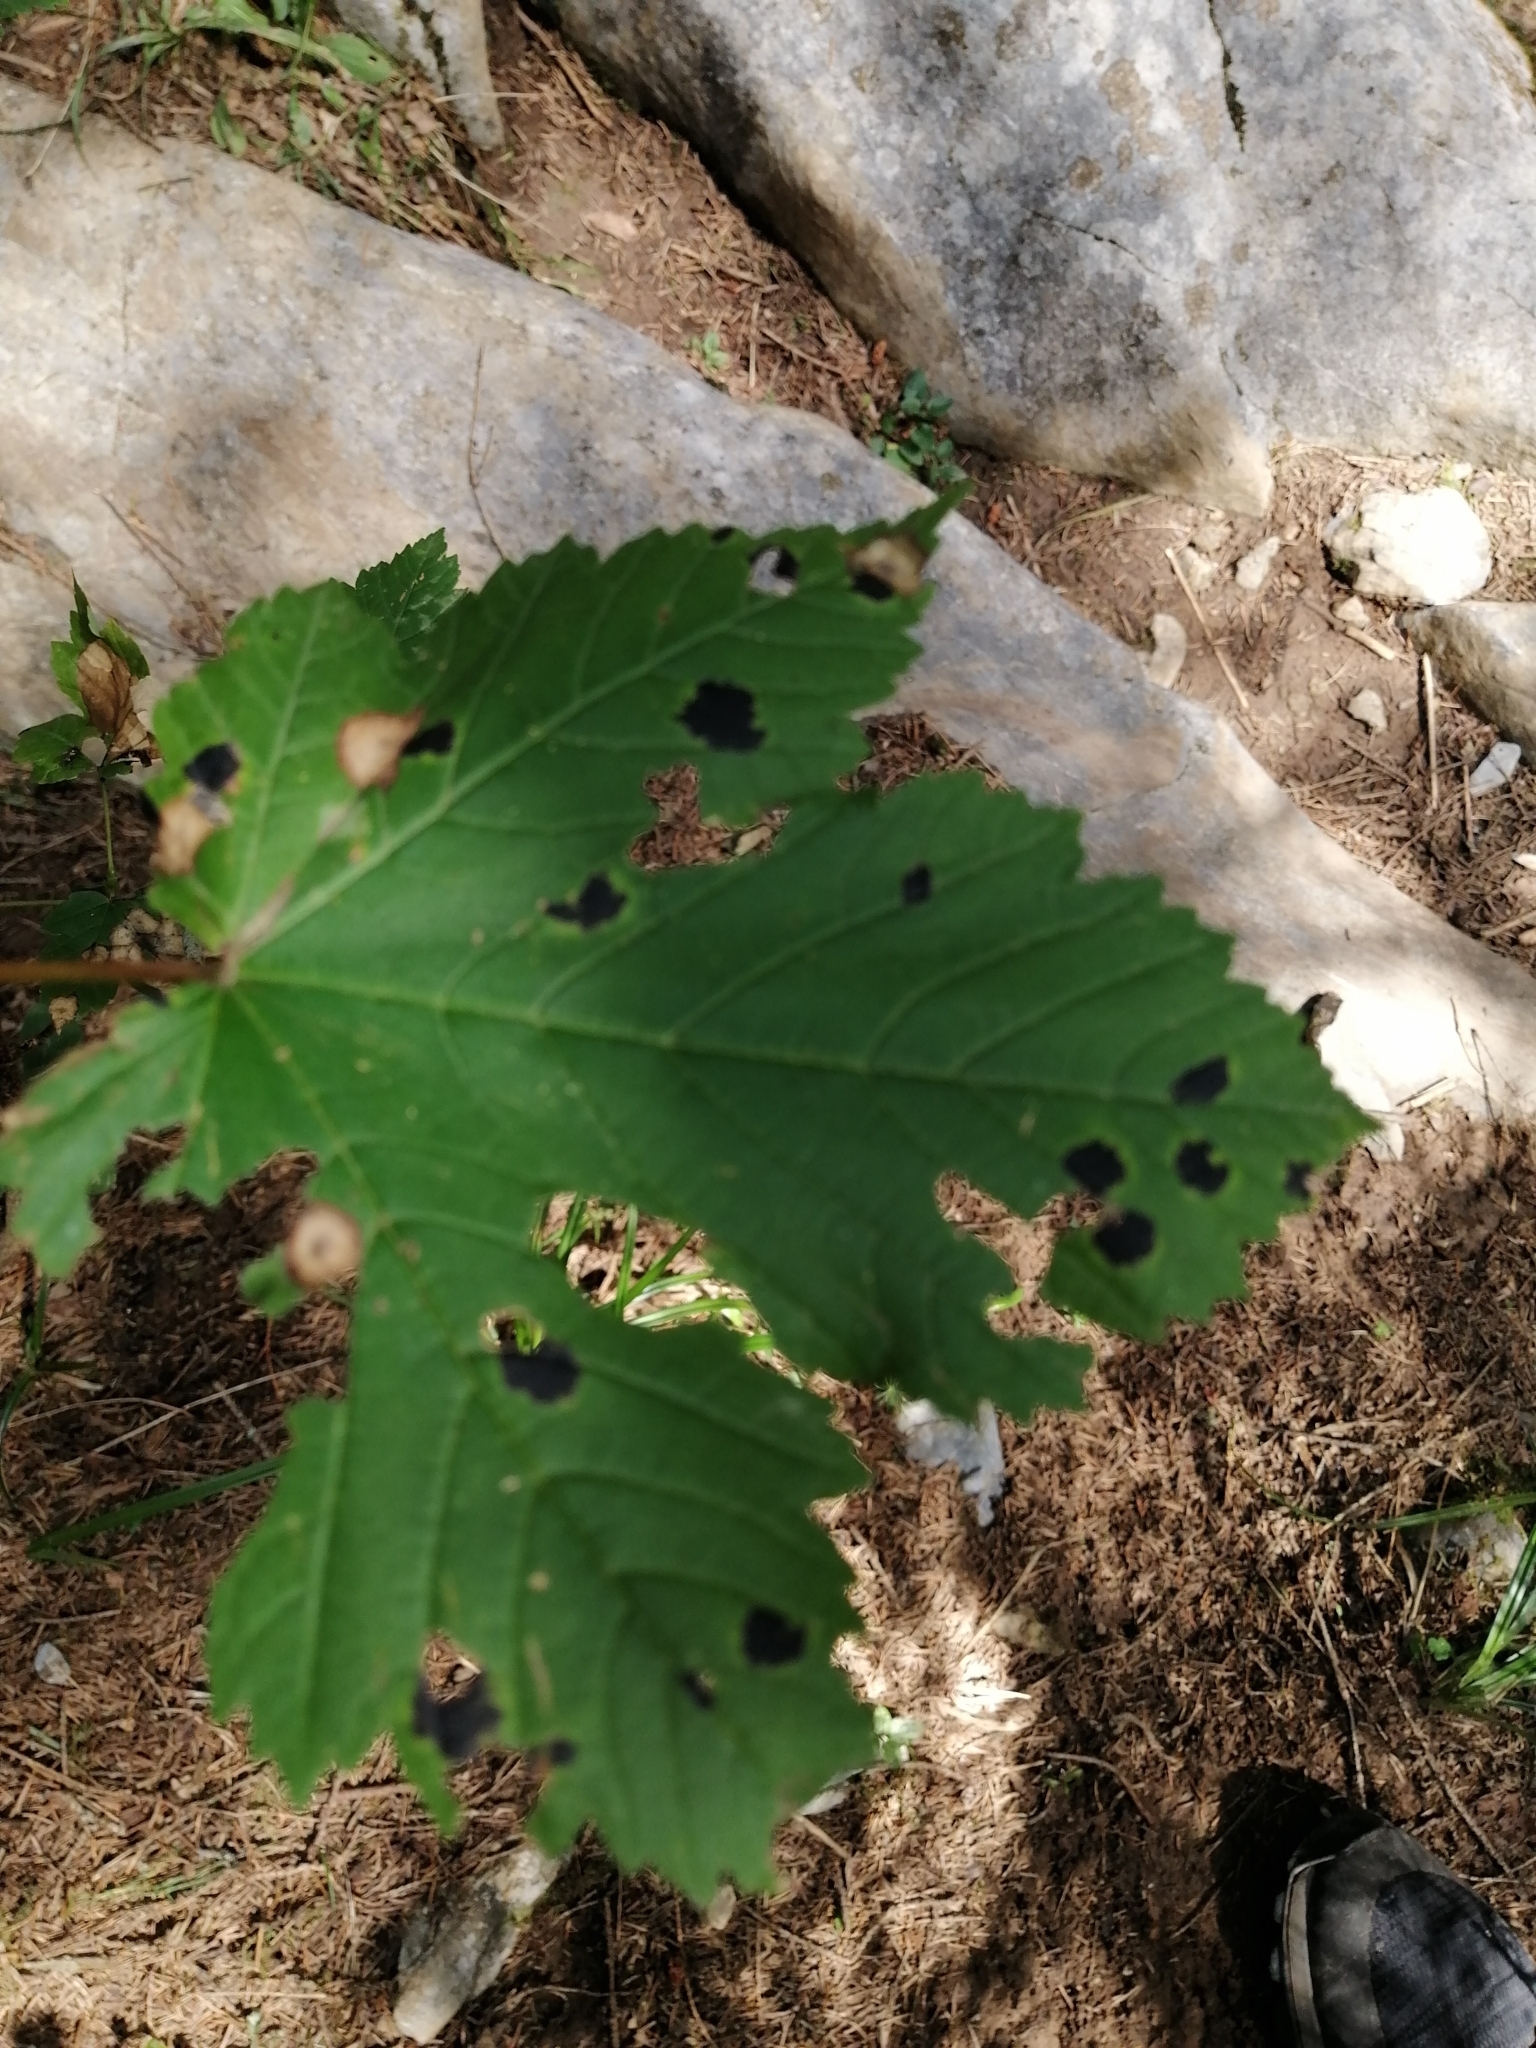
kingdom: Fungi
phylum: Ascomycota
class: Leotiomycetes
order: Rhytismatales
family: Rhytismataceae
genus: Rhytisma
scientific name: Rhytisma acerinum
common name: European tar spot
